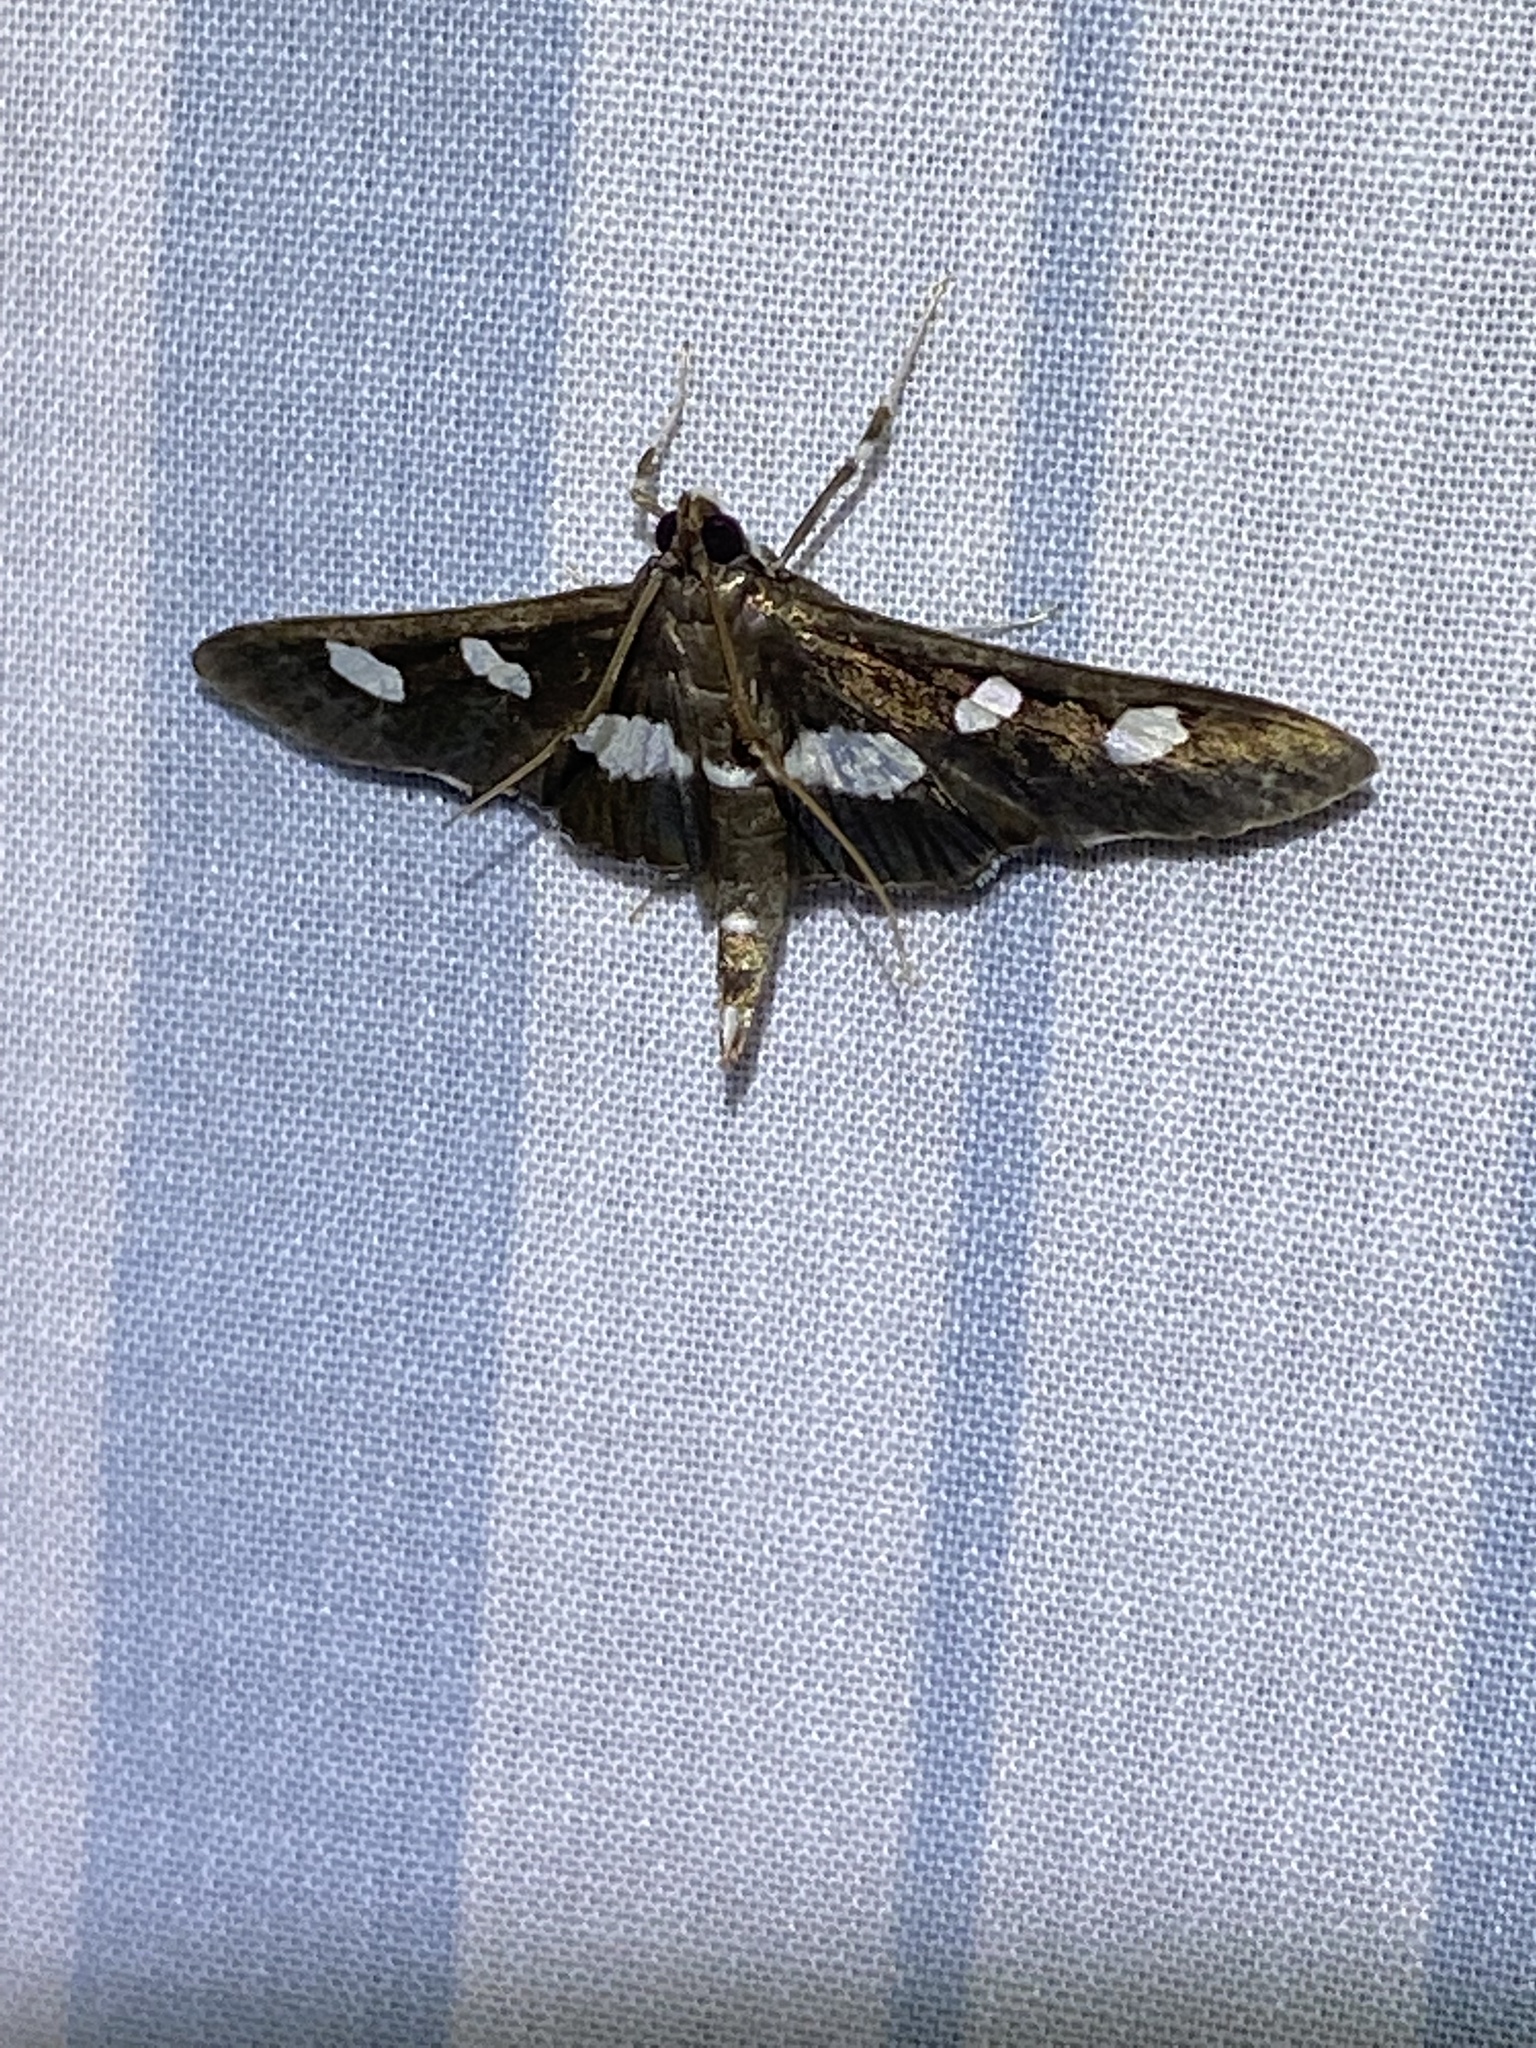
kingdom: Animalia
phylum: Arthropoda
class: Insecta
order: Lepidoptera
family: Crambidae
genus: Desmia
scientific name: Desmia funeralis
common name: Grape leaf folder moth
